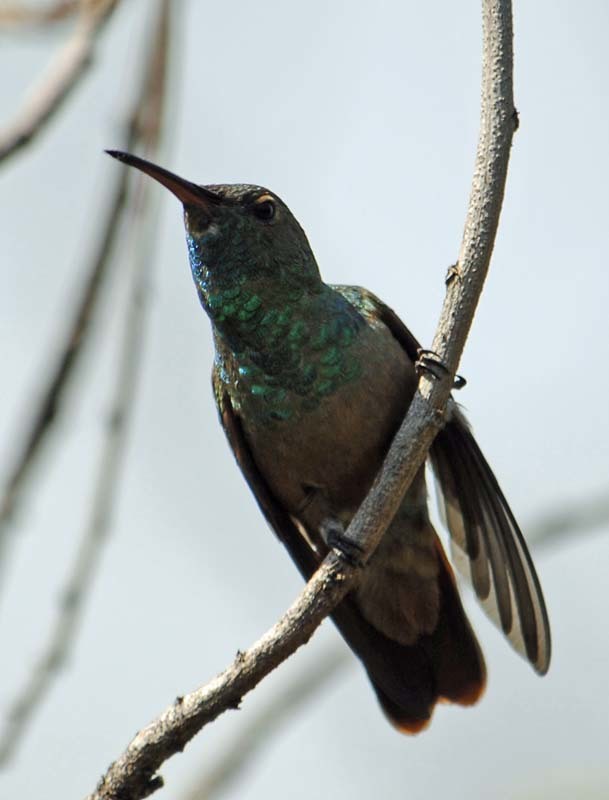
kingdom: Animalia
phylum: Chordata
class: Aves
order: Apodiformes
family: Trochilidae
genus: Cynanthus
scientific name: Cynanthus latirostris
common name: Broad-billed hummingbird
